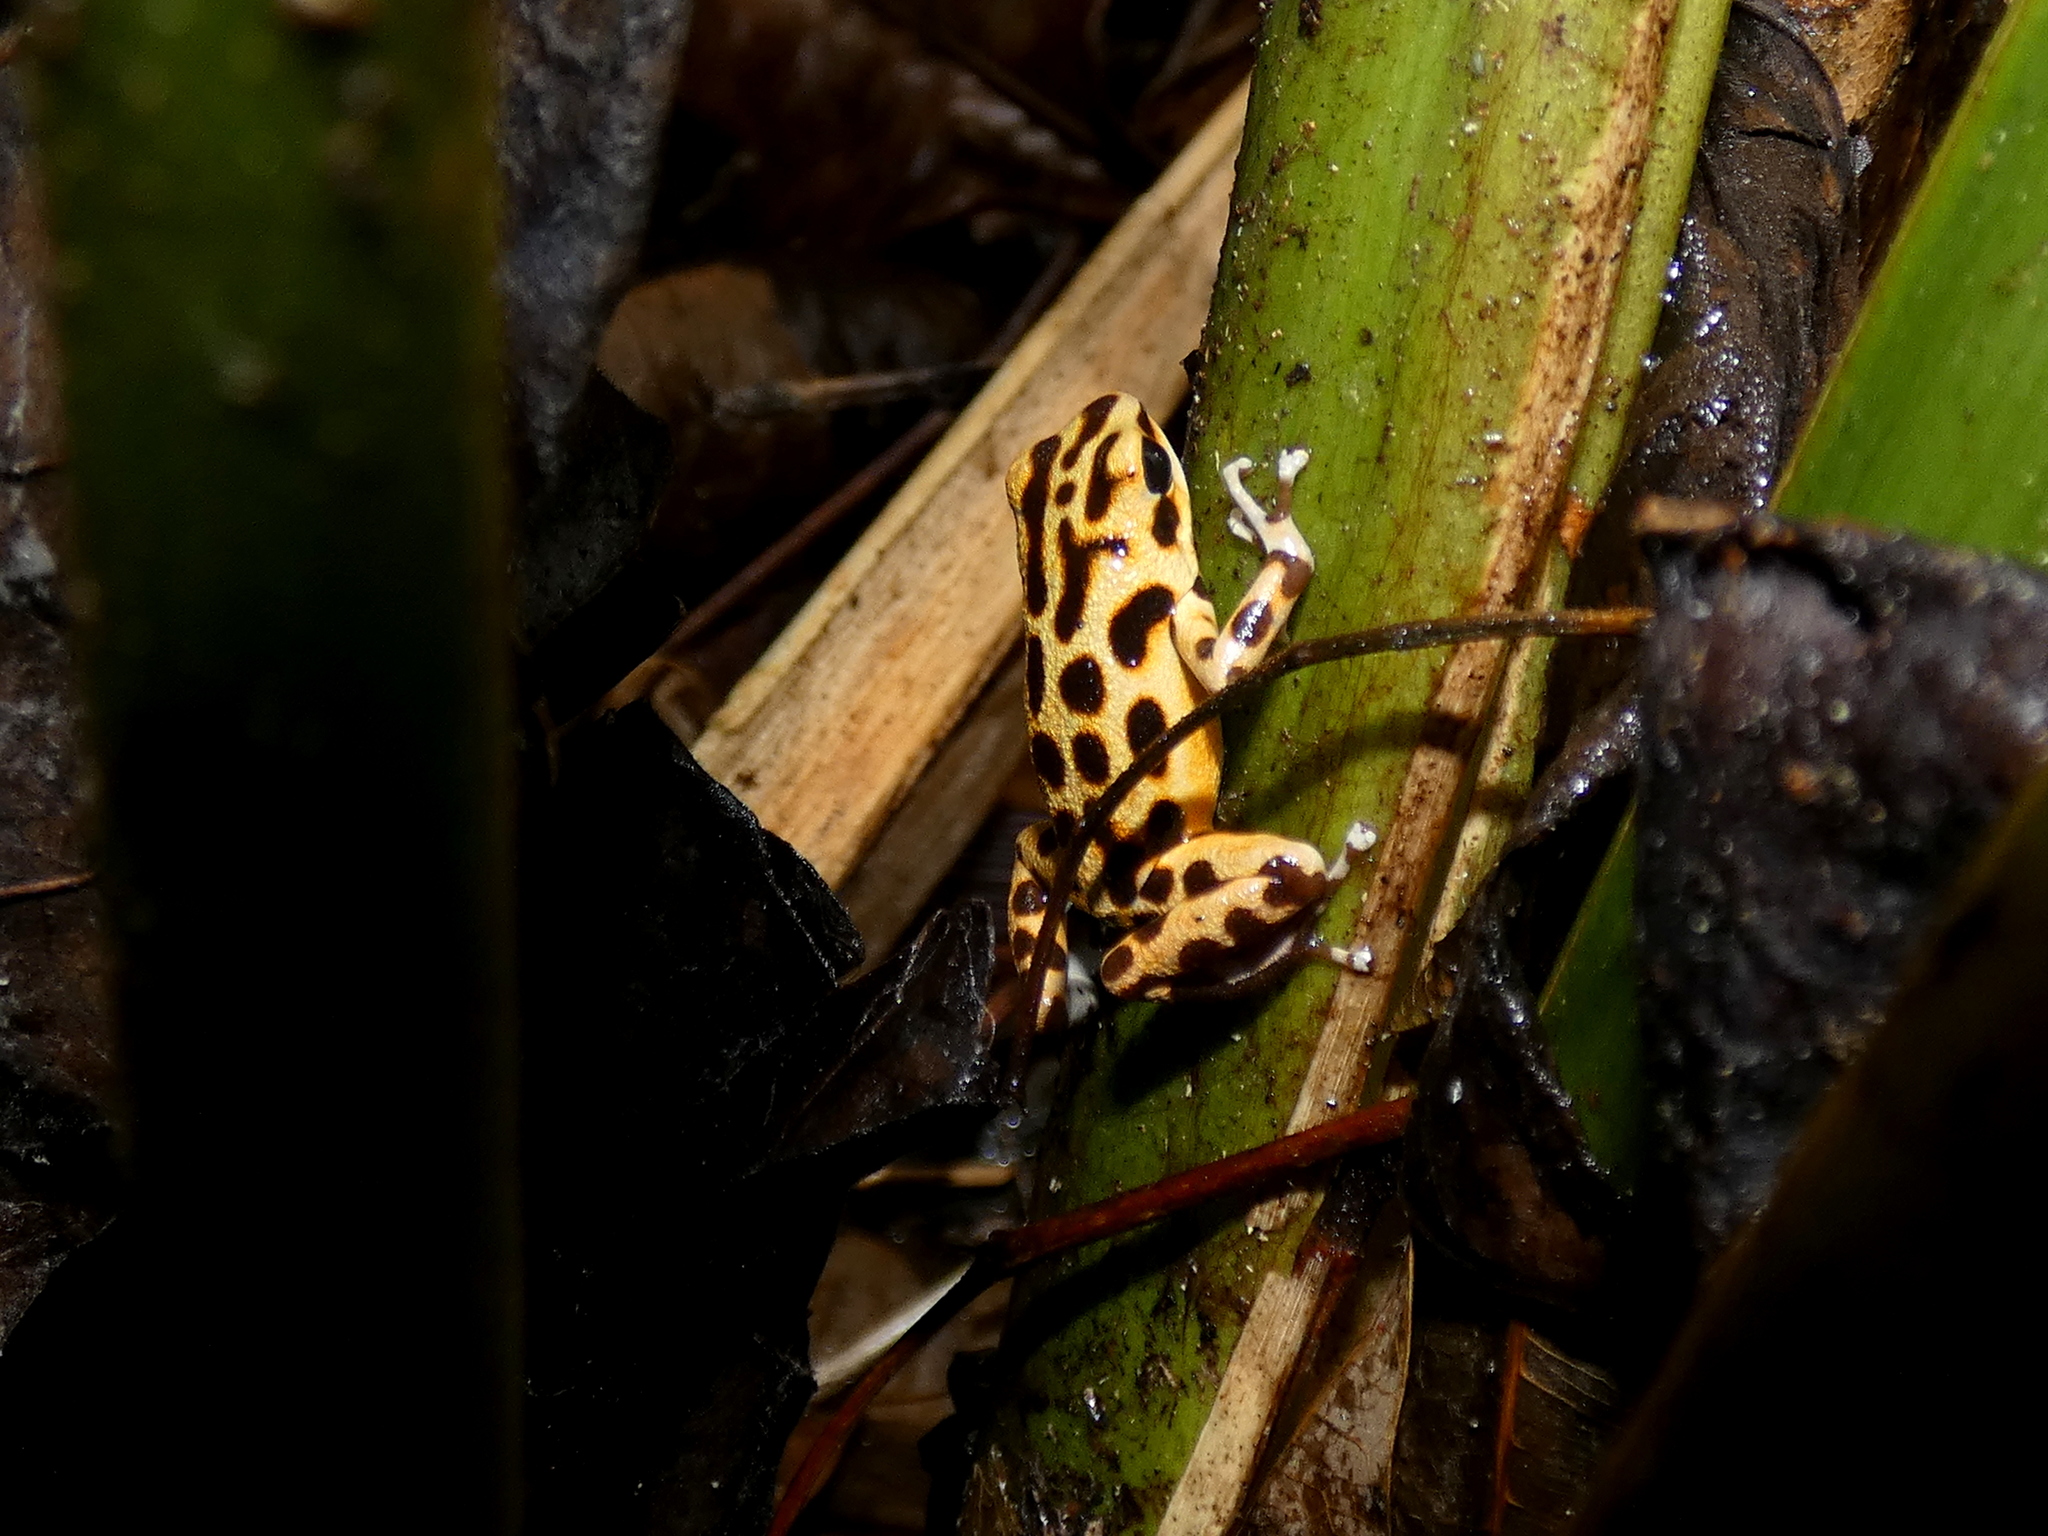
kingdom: Animalia
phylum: Chordata
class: Amphibia
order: Anura
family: Dendrobatidae
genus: Oophaga
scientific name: Oophaga pumilio
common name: Flaming poison frog
